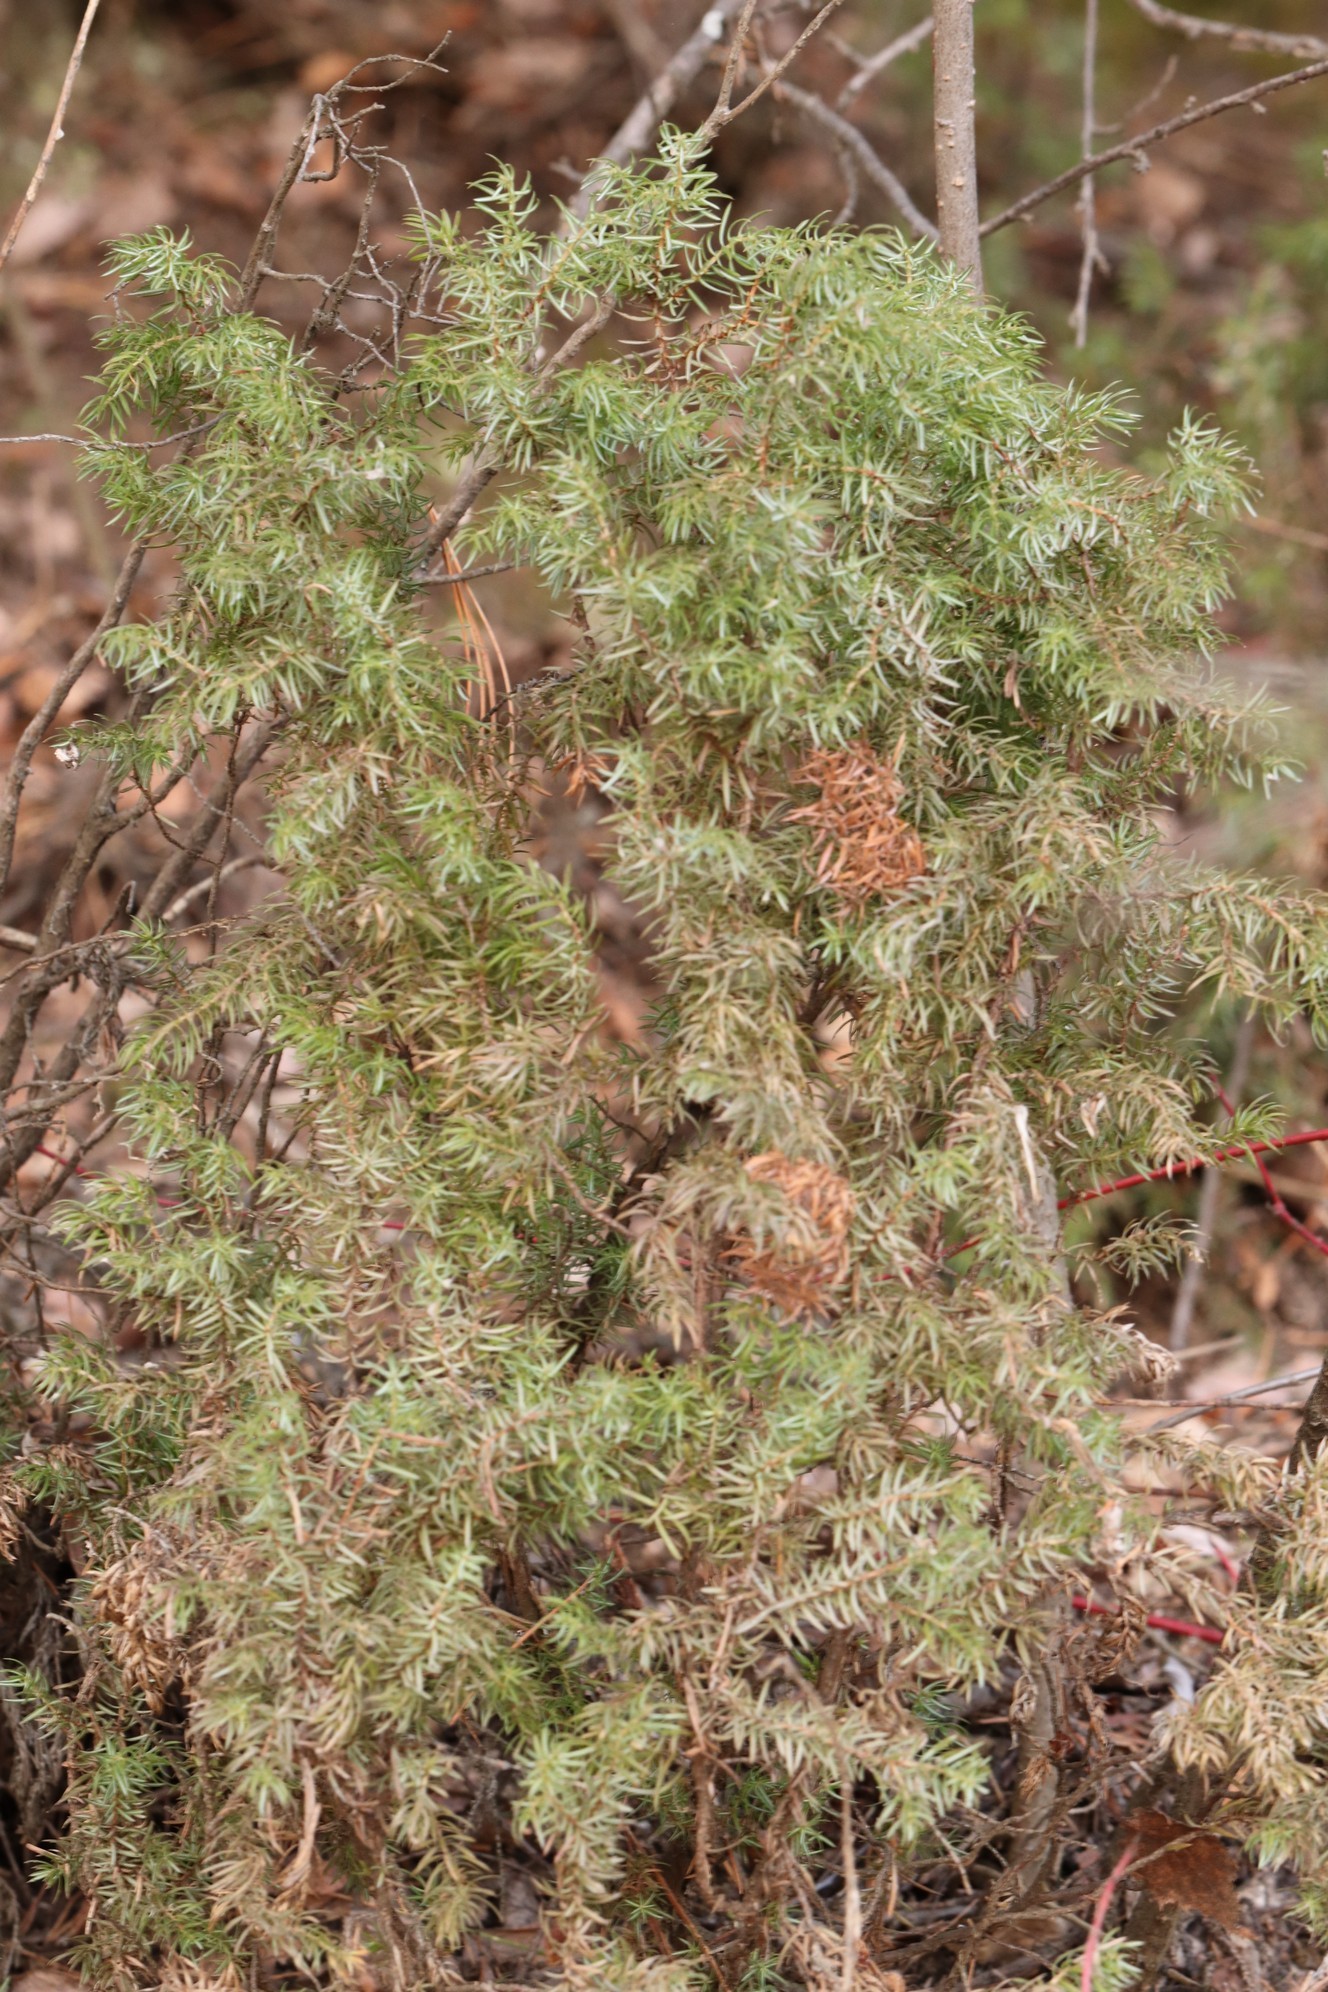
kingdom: Plantae
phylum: Tracheophyta
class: Pinopsida
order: Pinales
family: Cupressaceae
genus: Juniperus
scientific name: Juniperus communis
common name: Common juniper
